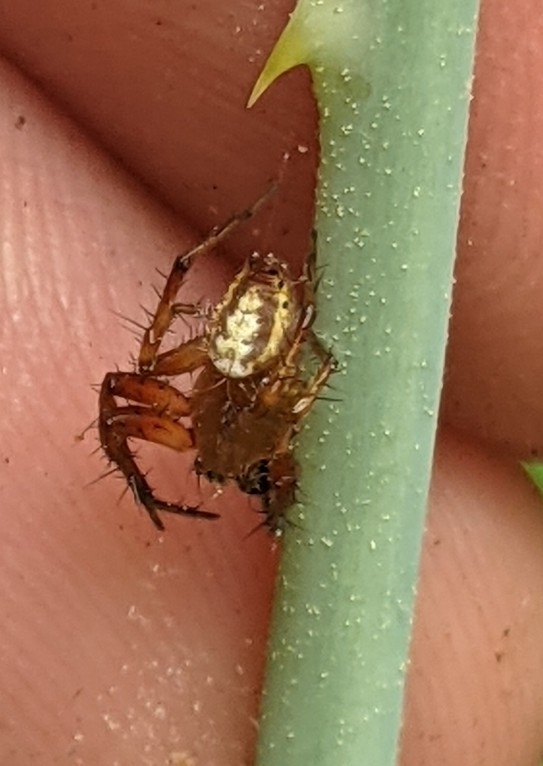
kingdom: Animalia
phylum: Arthropoda
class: Arachnida
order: Araneae
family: Araneidae
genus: Araniella
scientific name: Araniella displicata
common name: Sixspotted orb weaver
